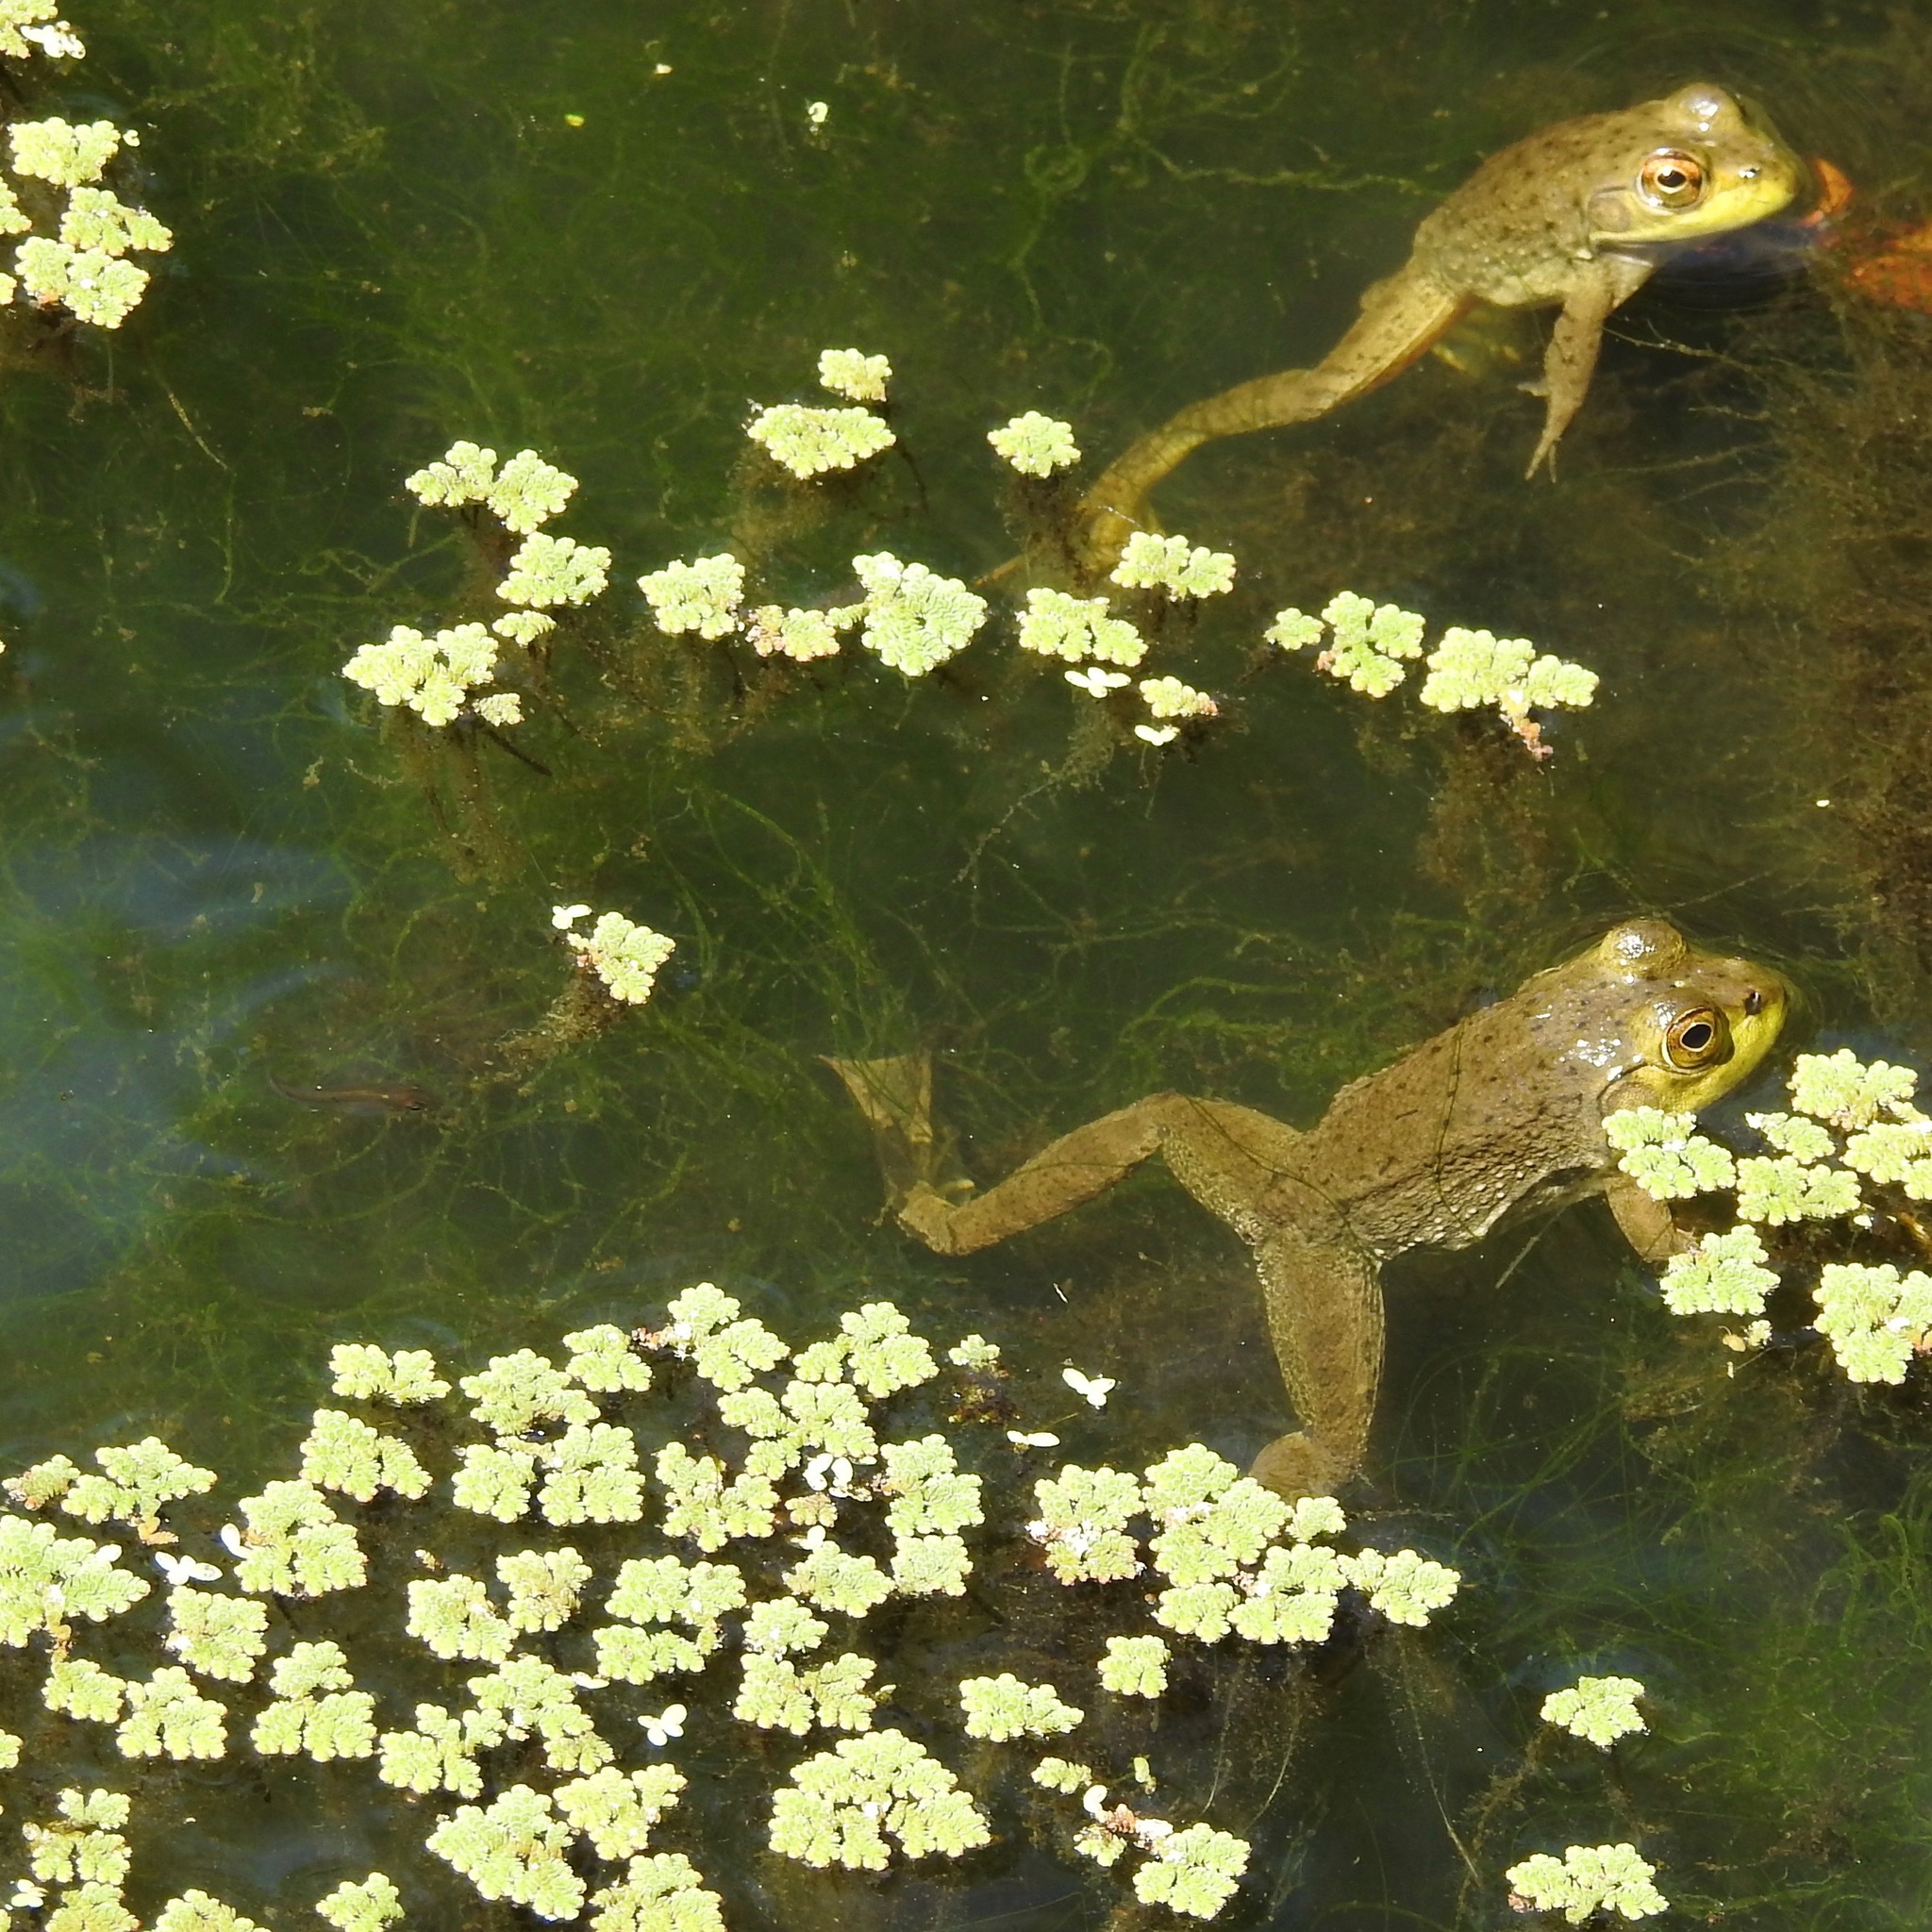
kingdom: Animalia
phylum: Chordata
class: Amphibia
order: Anura
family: Ranidae
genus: Lithobates
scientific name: Lithobates catesbeianus
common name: American bullfrog
